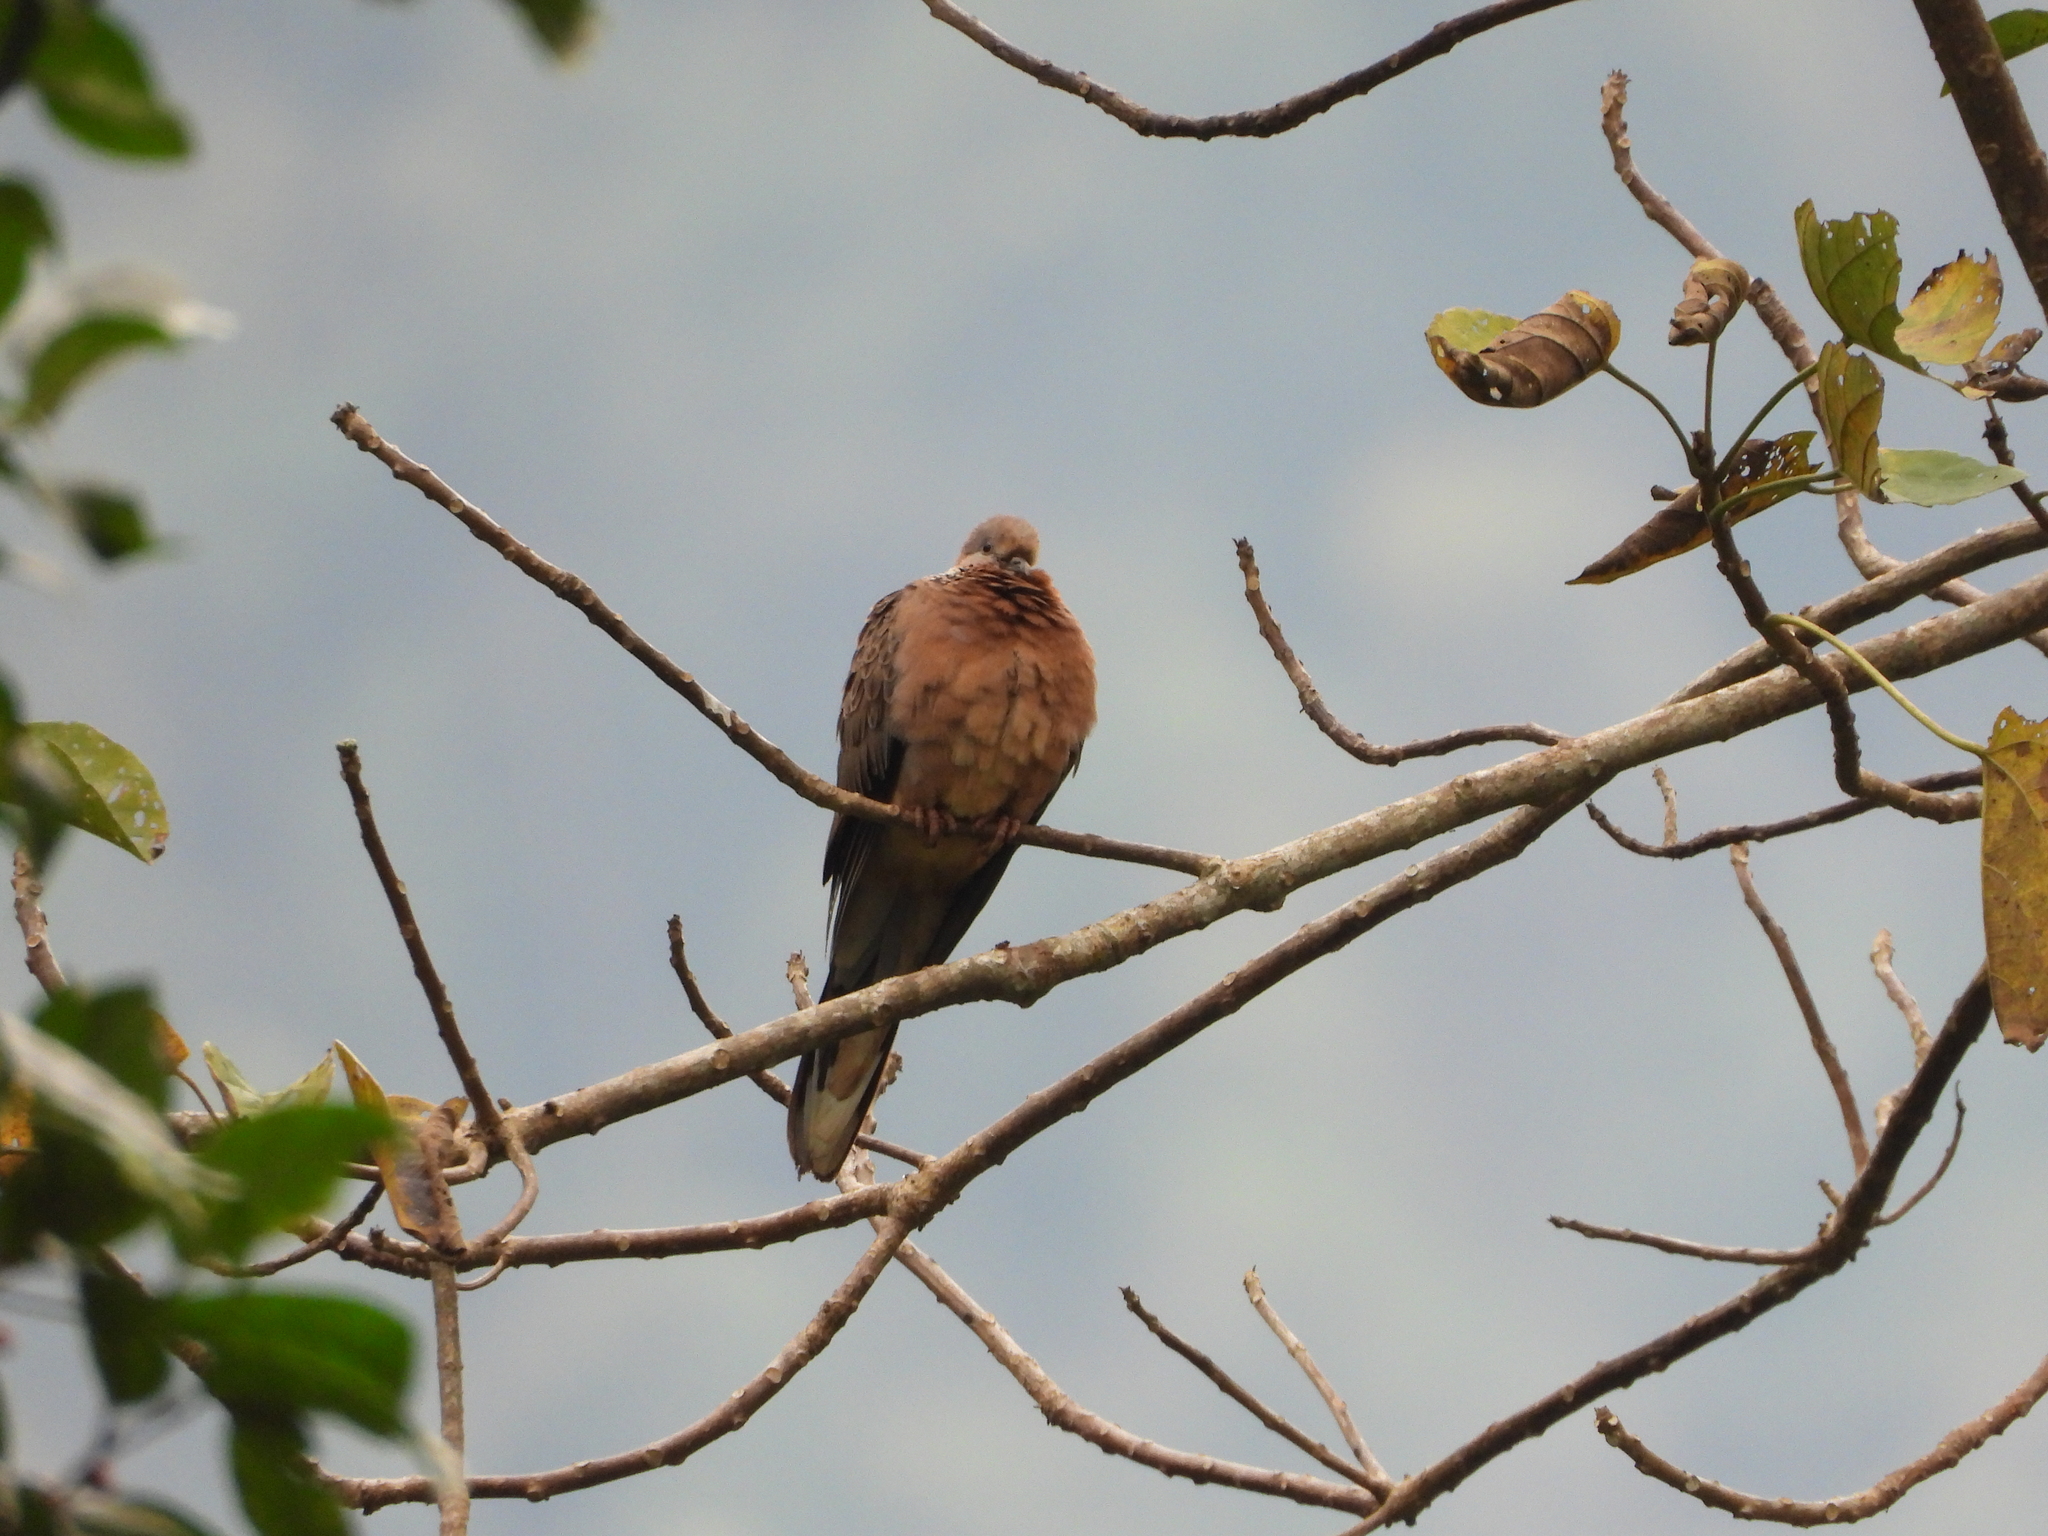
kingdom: Animalia
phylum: Chordata
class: Aves
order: Columbiformes
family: Columbidae
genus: Spilopelia
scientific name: Spilopelia chinensis
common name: Spotted dove
